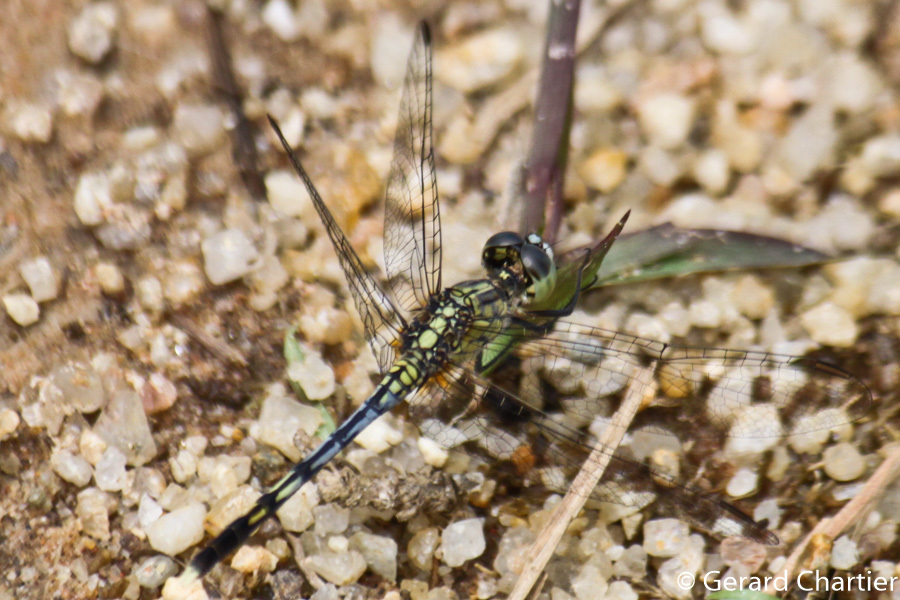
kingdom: Animalia
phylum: Arthropoda
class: Insecta
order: Odonata
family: Libellulidae
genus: Diplacodes
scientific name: Diplacodes trivialis
